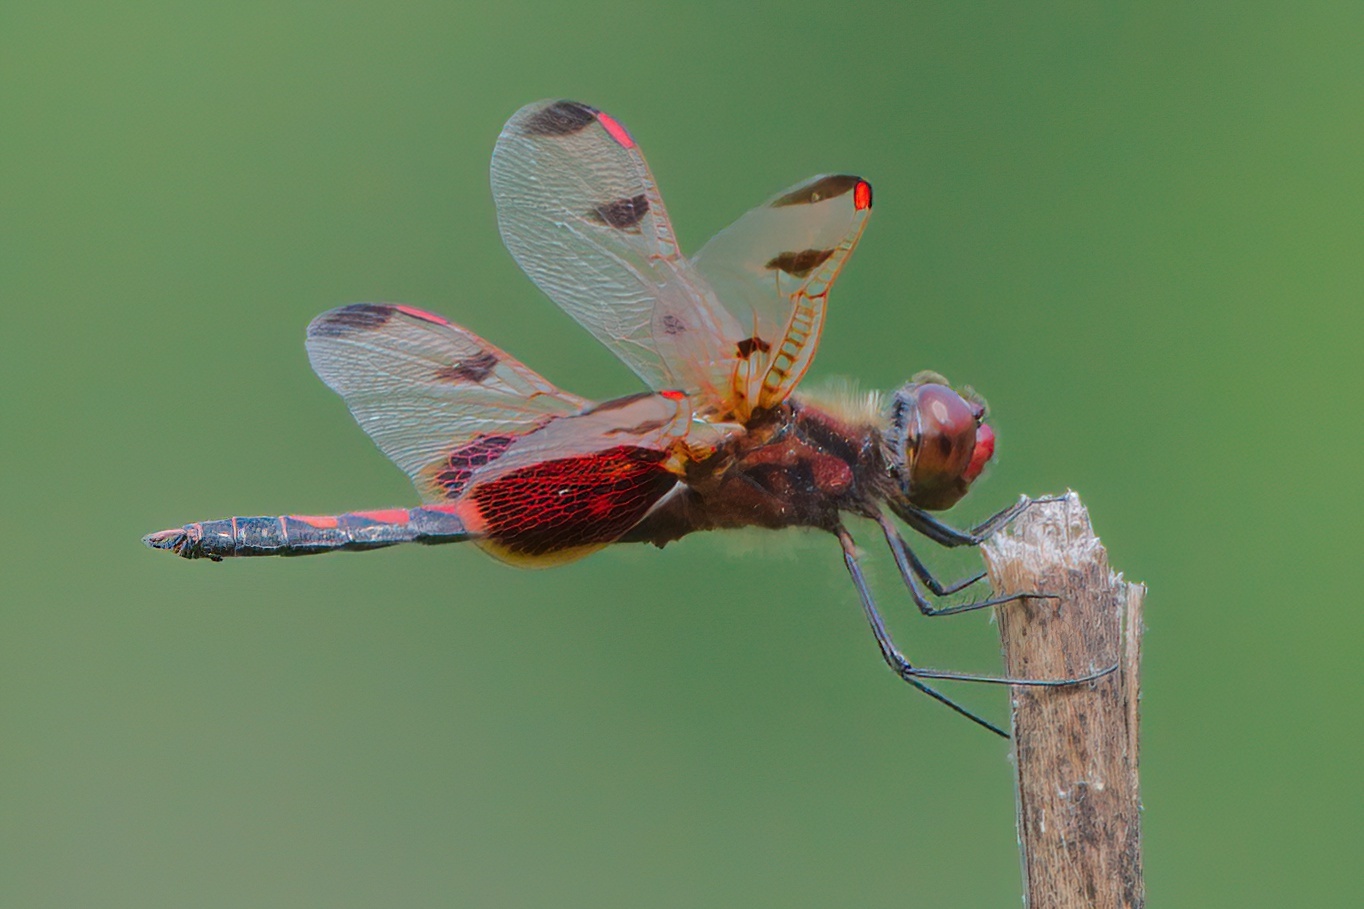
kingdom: Animalia
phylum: Arthropoda
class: Insecta
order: Odonata
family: Libellulidae
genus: Celithemis
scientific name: Celithemis elisa
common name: Calico pennant
